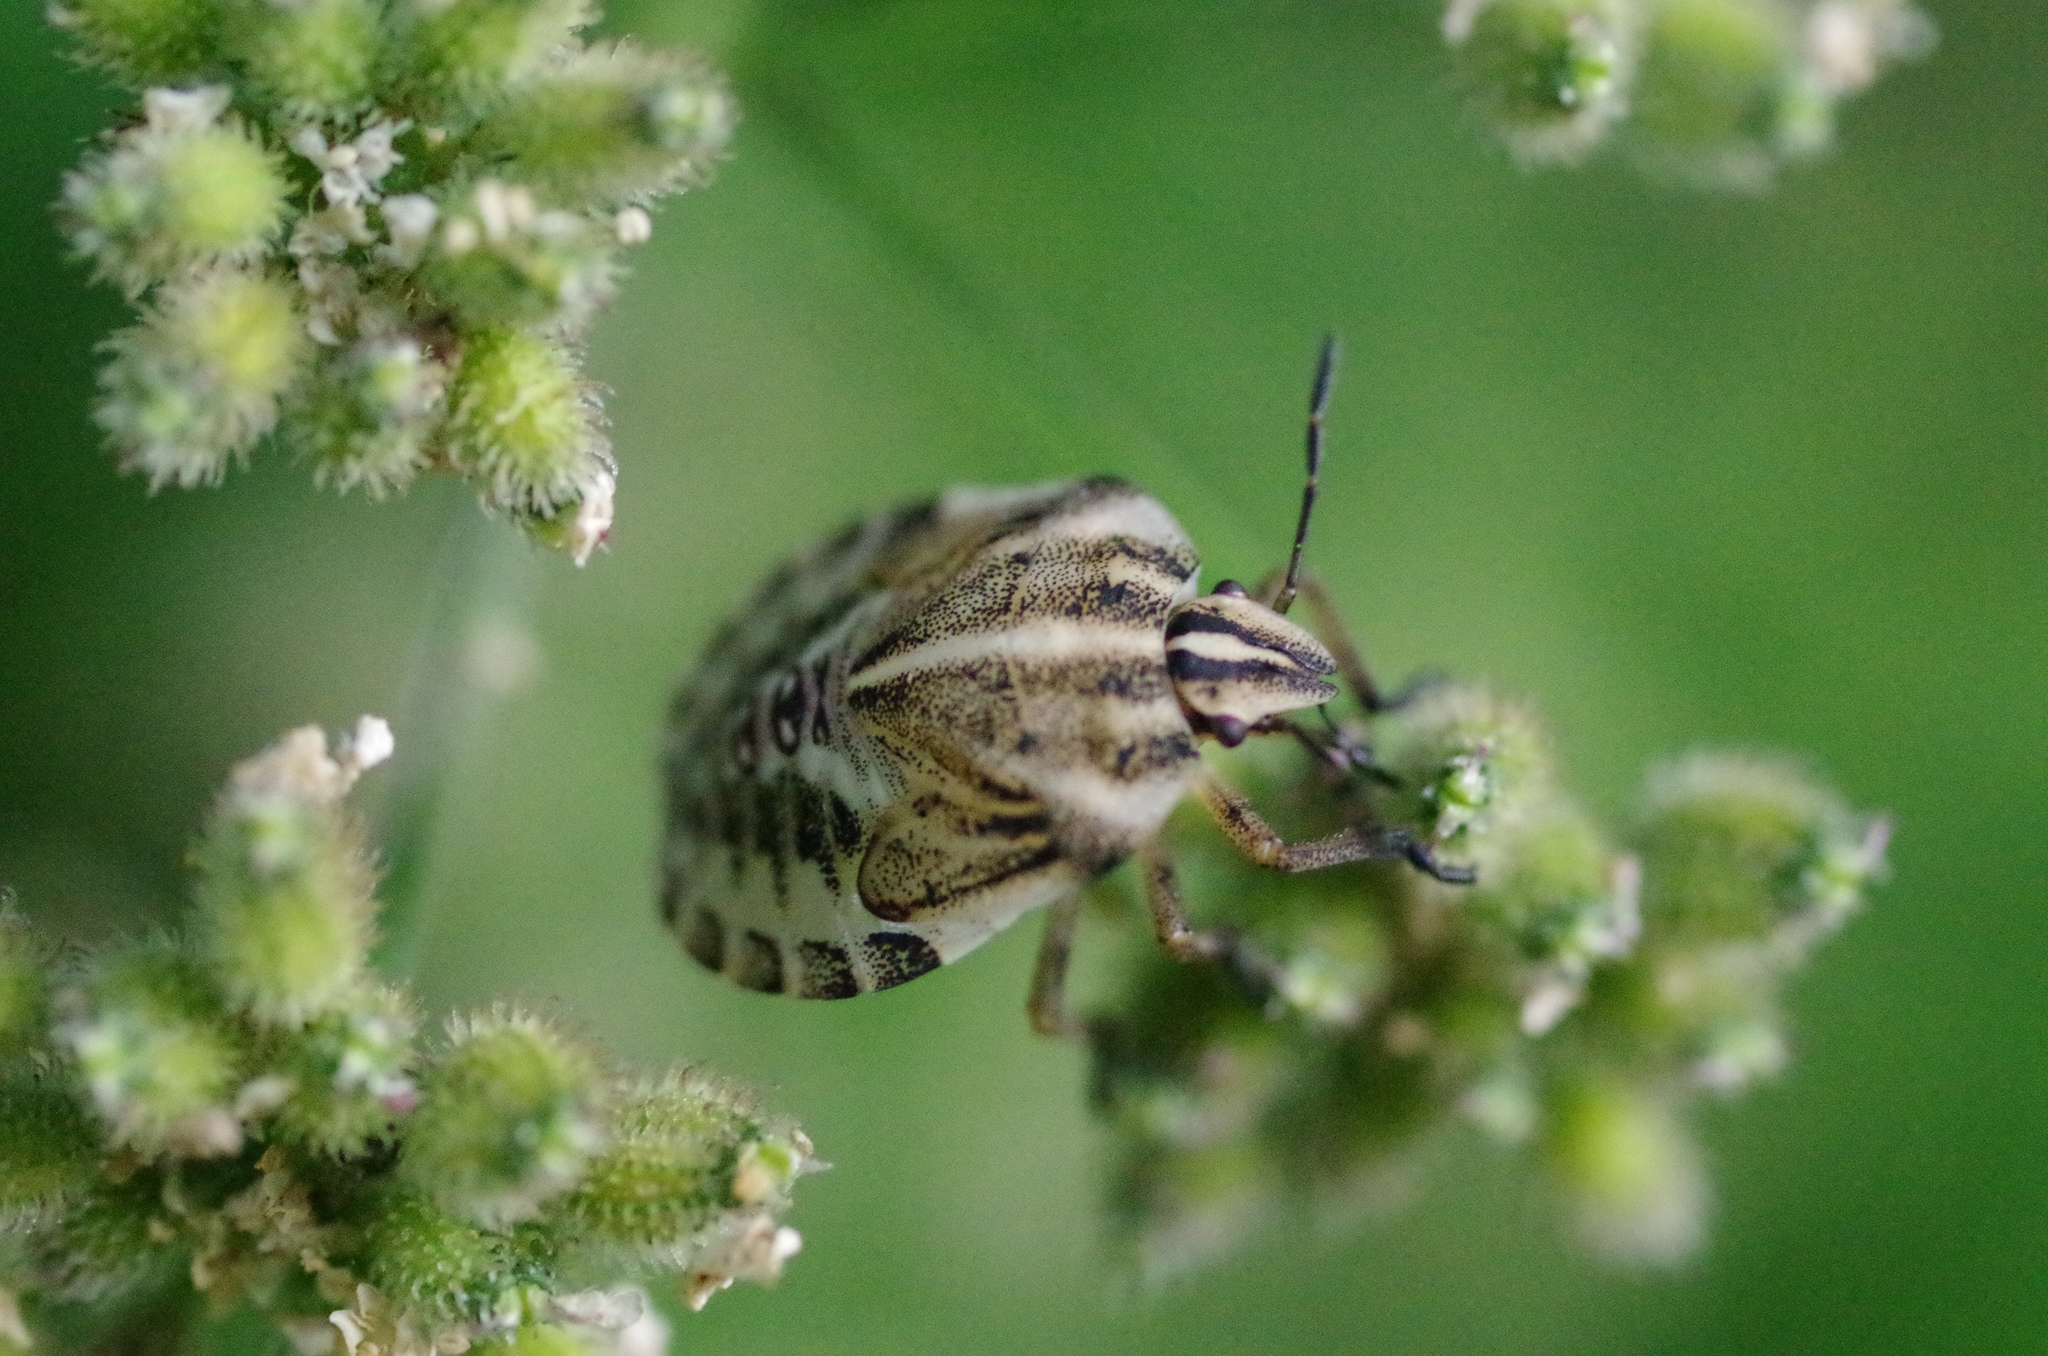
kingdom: Animalia
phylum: Arthropoda
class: Insecta
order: Hemiptera
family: Pentatomidae
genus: Graphosoma
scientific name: Graphosoma italicum
